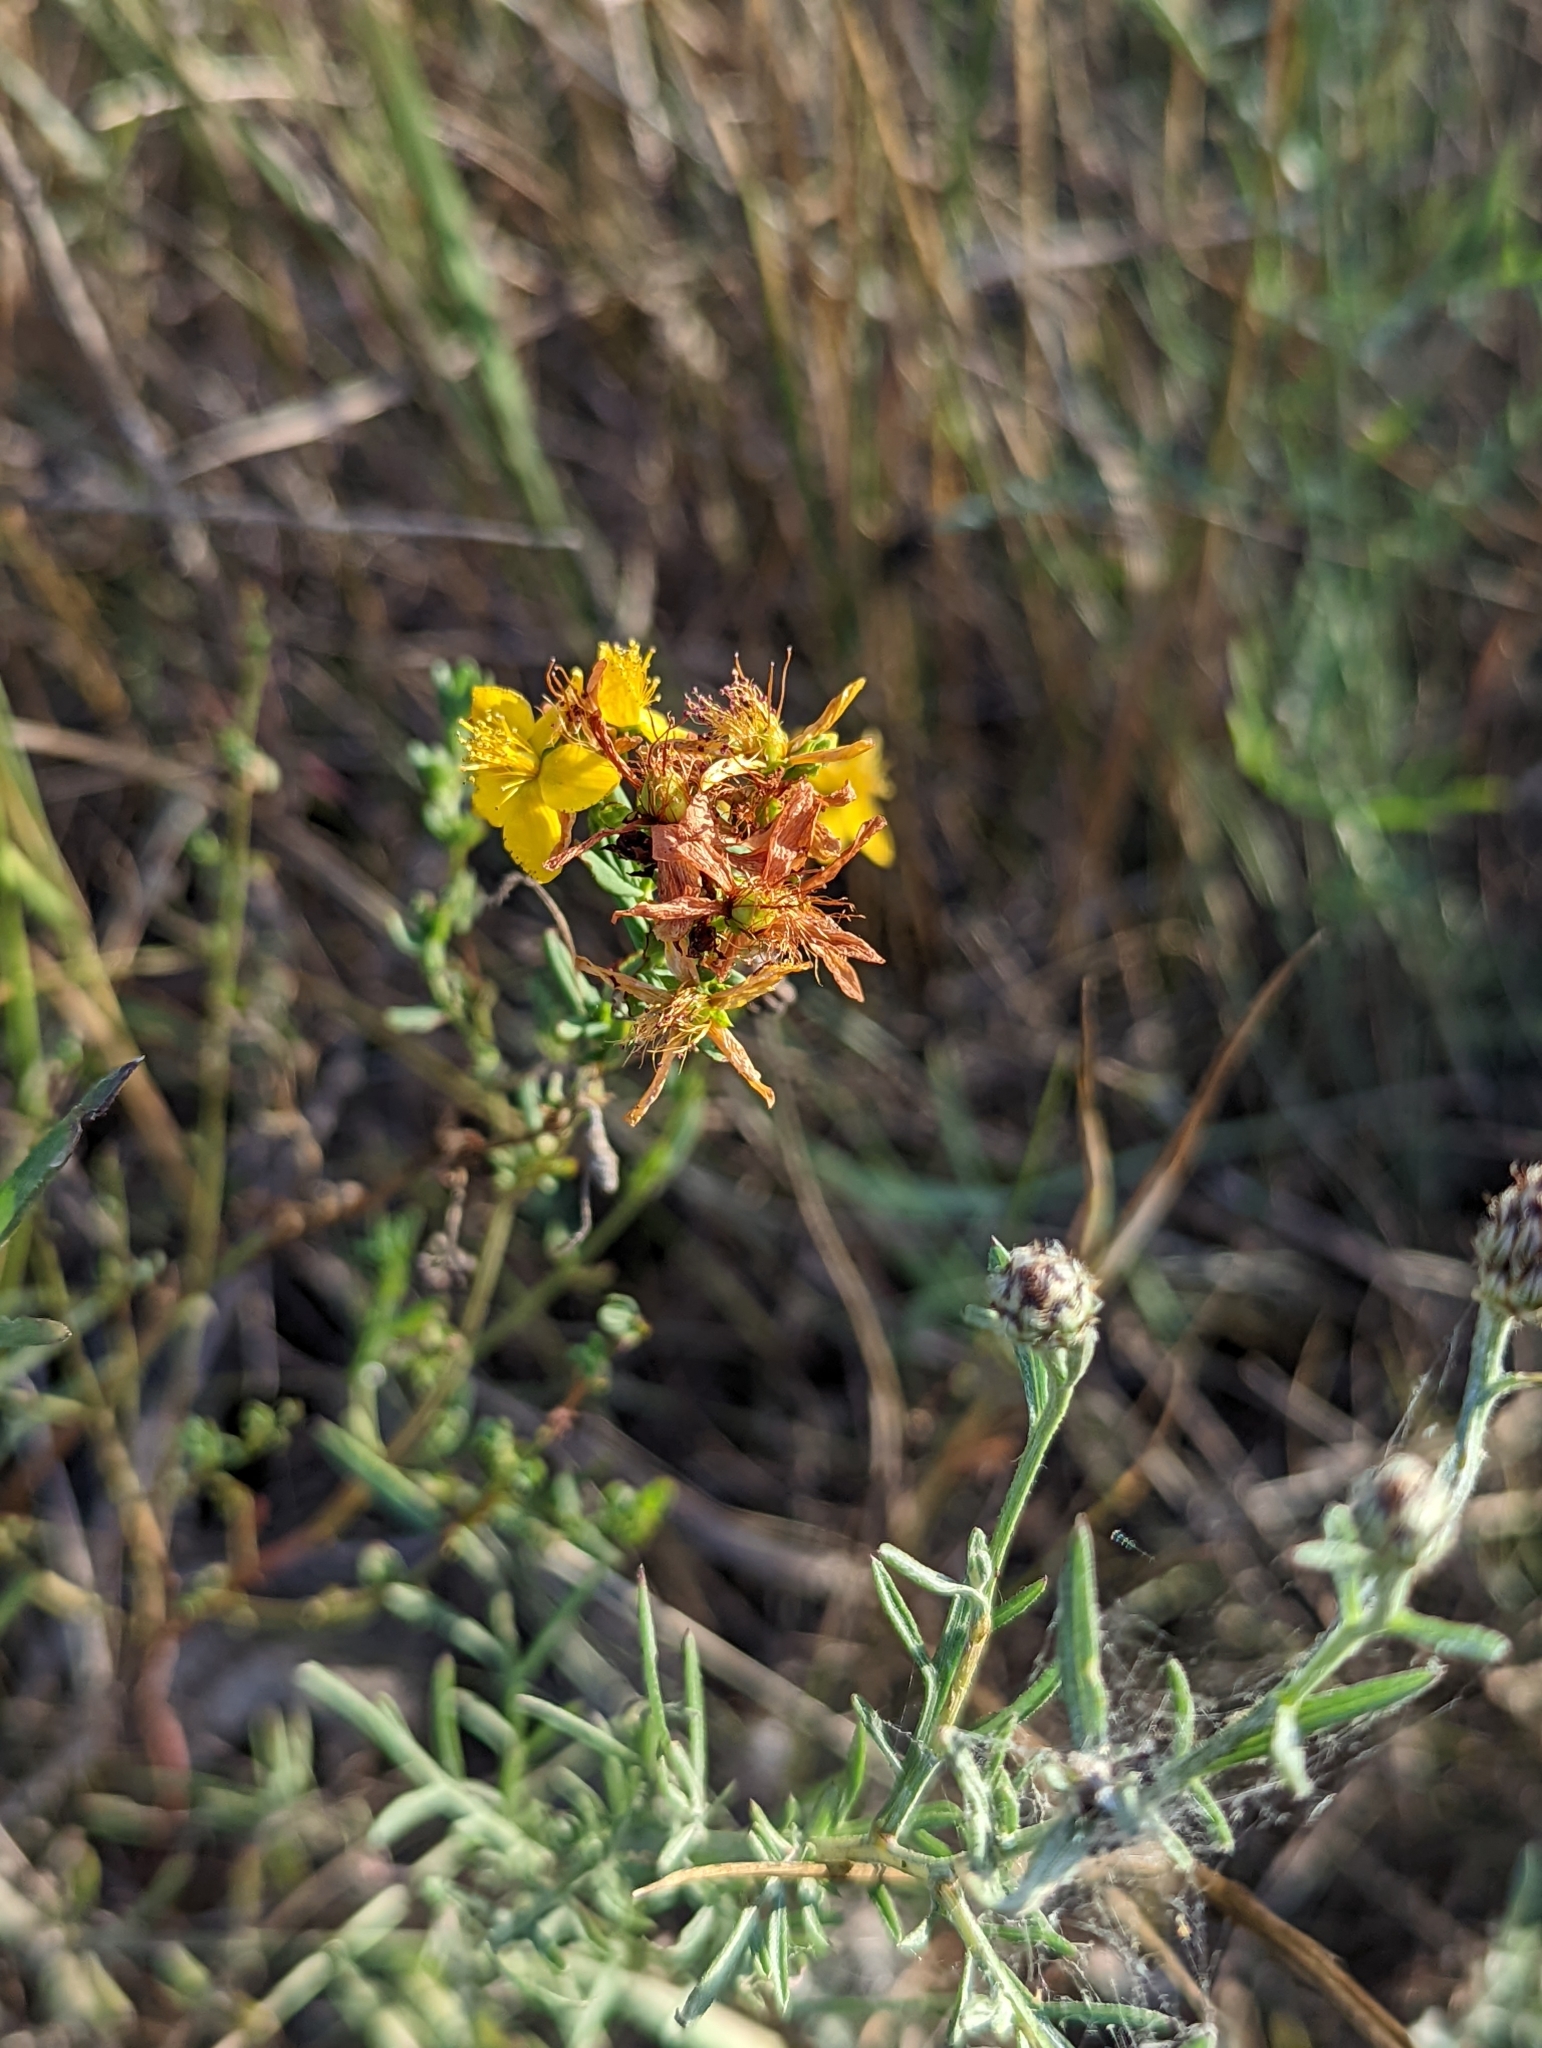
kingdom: Plantae
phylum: Tracheophyta
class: Magnoliopsida
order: Malpighiales
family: Hypericaceae
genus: Hypericum
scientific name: Hypericum perforatum
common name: Common st. johnswort
